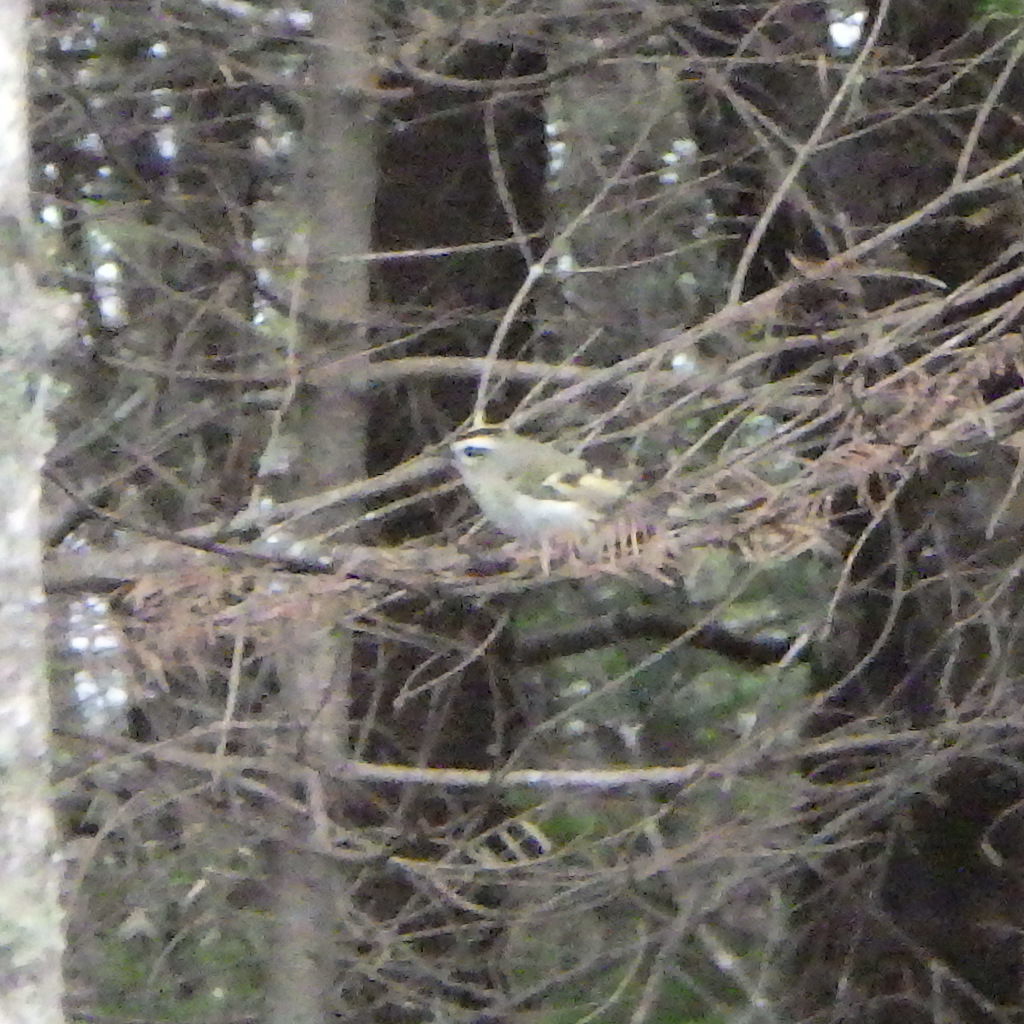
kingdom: Animalia
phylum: Chordata
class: Aves
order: Passeriformes
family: Regulidae
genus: Regulus
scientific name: Regulus satrapa
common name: Golden-crowned kinglet
